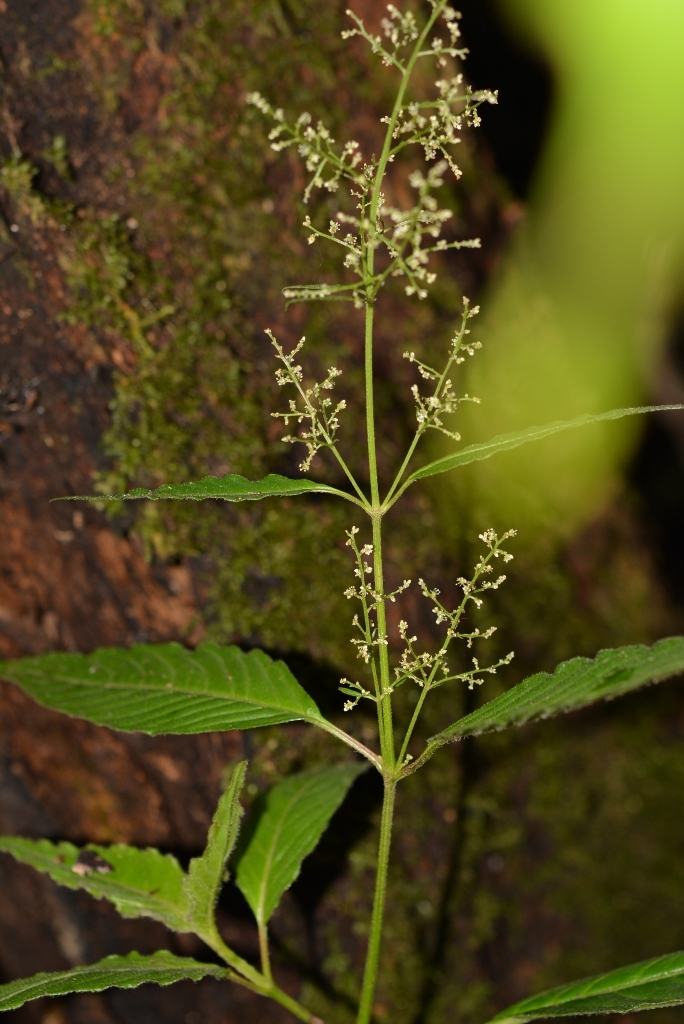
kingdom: Plantae
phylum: Tracheophyta
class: Magnoliopsida
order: Caryophyllales
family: Amaranthaceae
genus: Iresine
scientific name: Iresine diffusa
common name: Juba's-bush
